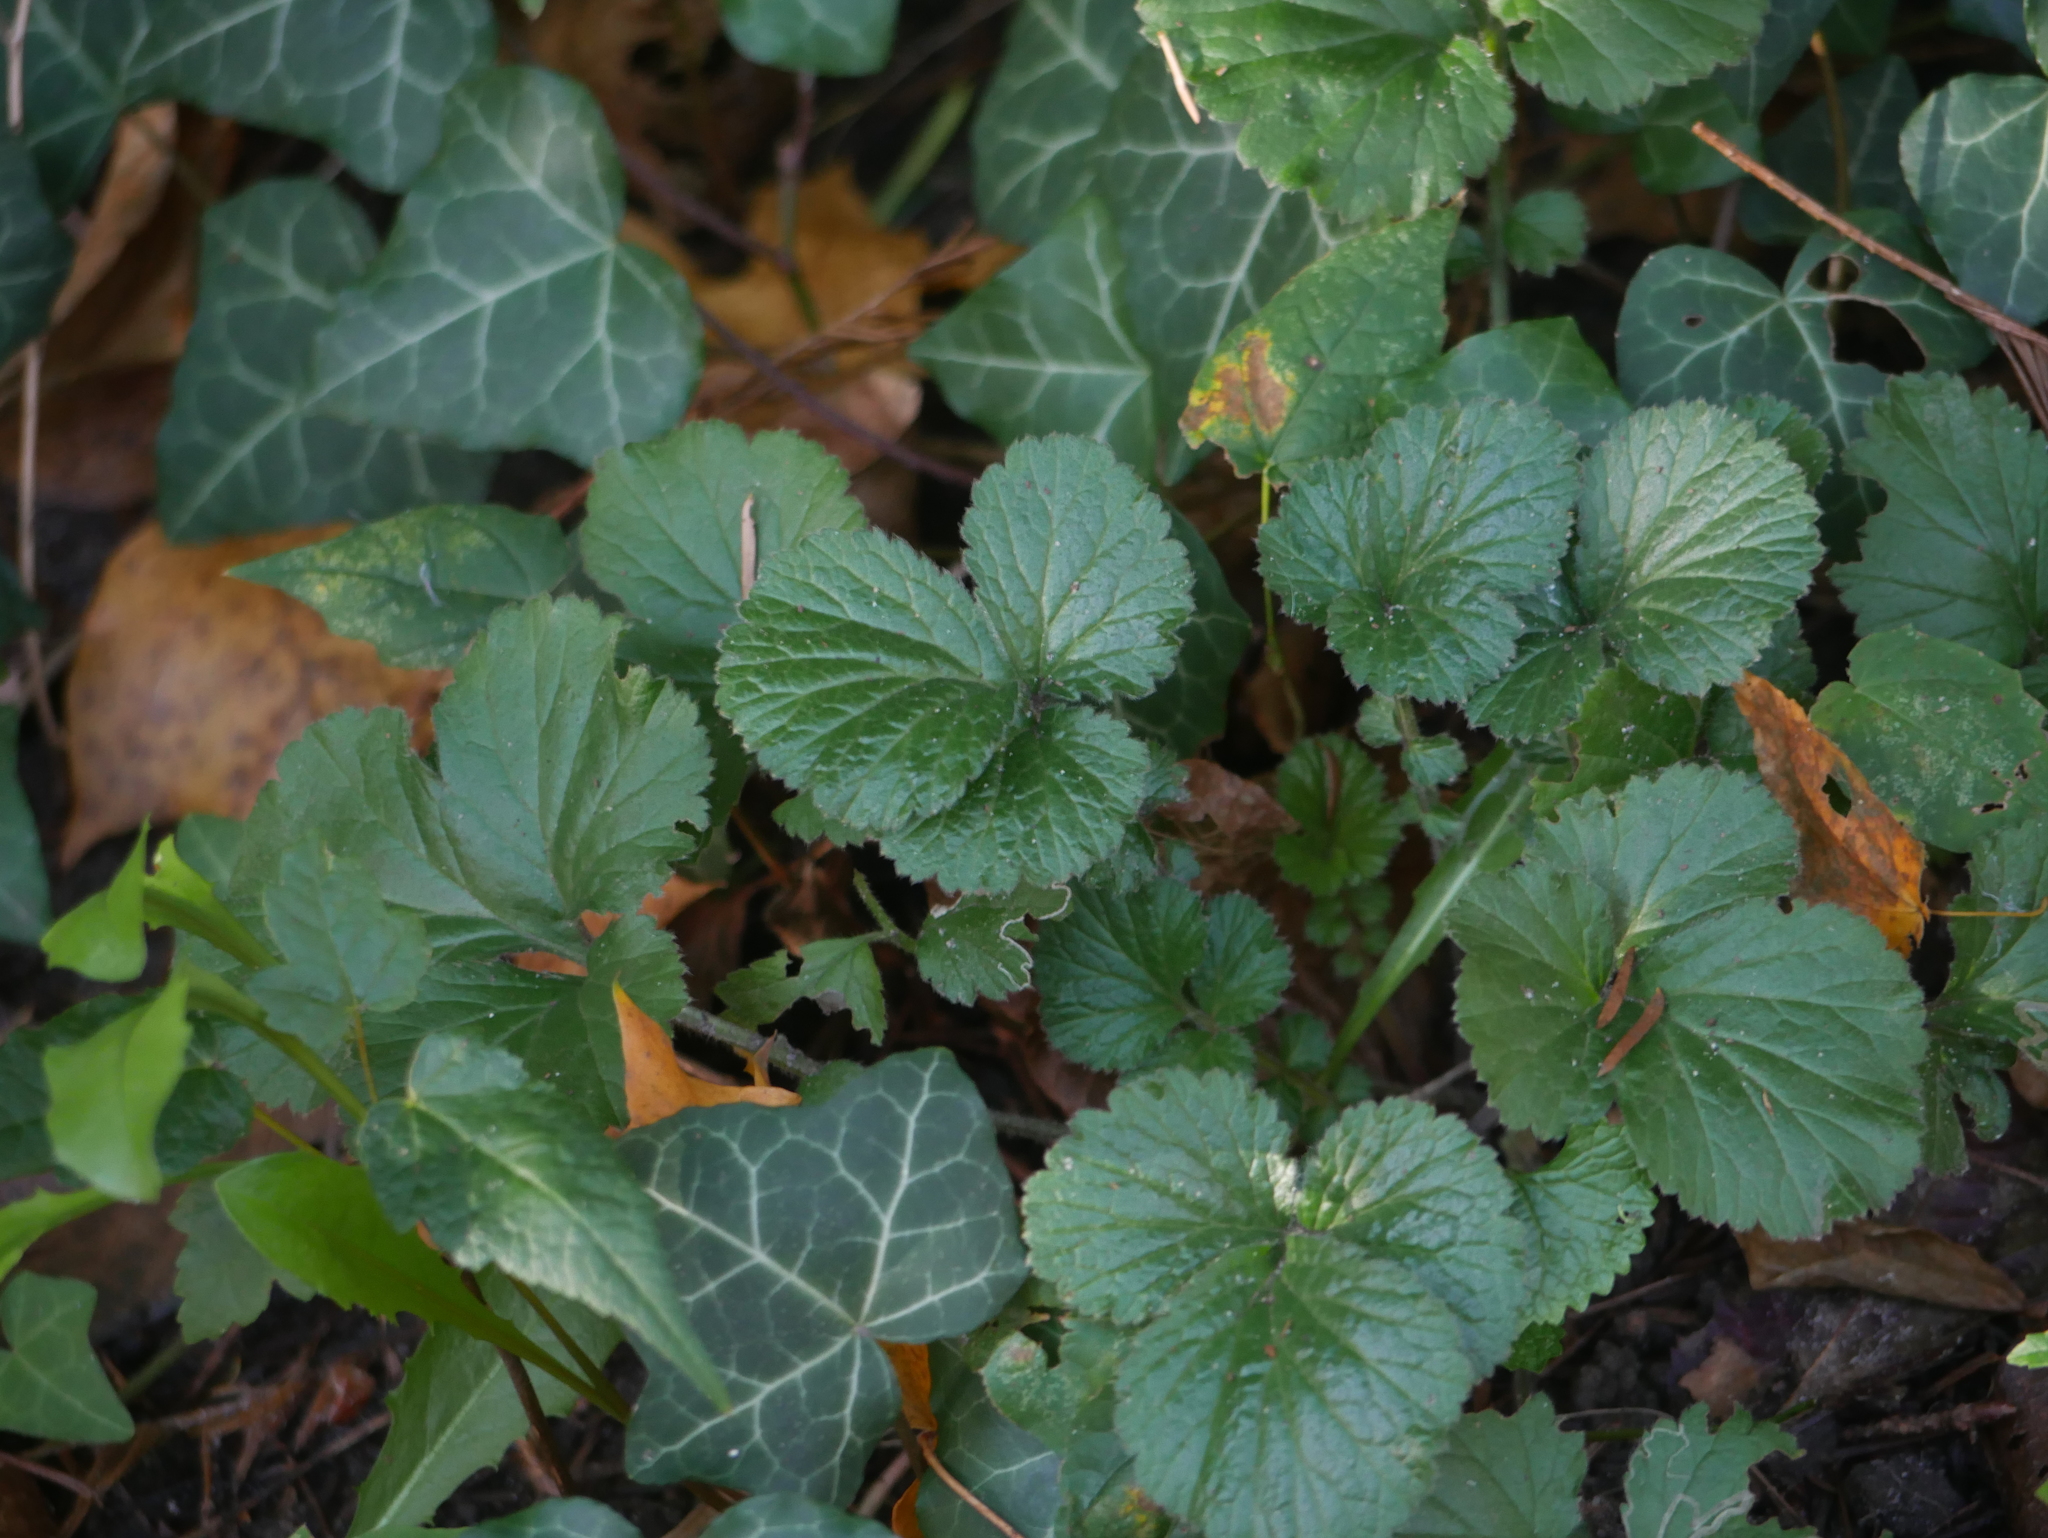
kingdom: Plantae
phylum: Tracheophyta
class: Magnoliopsida
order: Rosales
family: Rosaceae
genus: Geum
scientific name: Geum urbanum
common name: Wood avens
